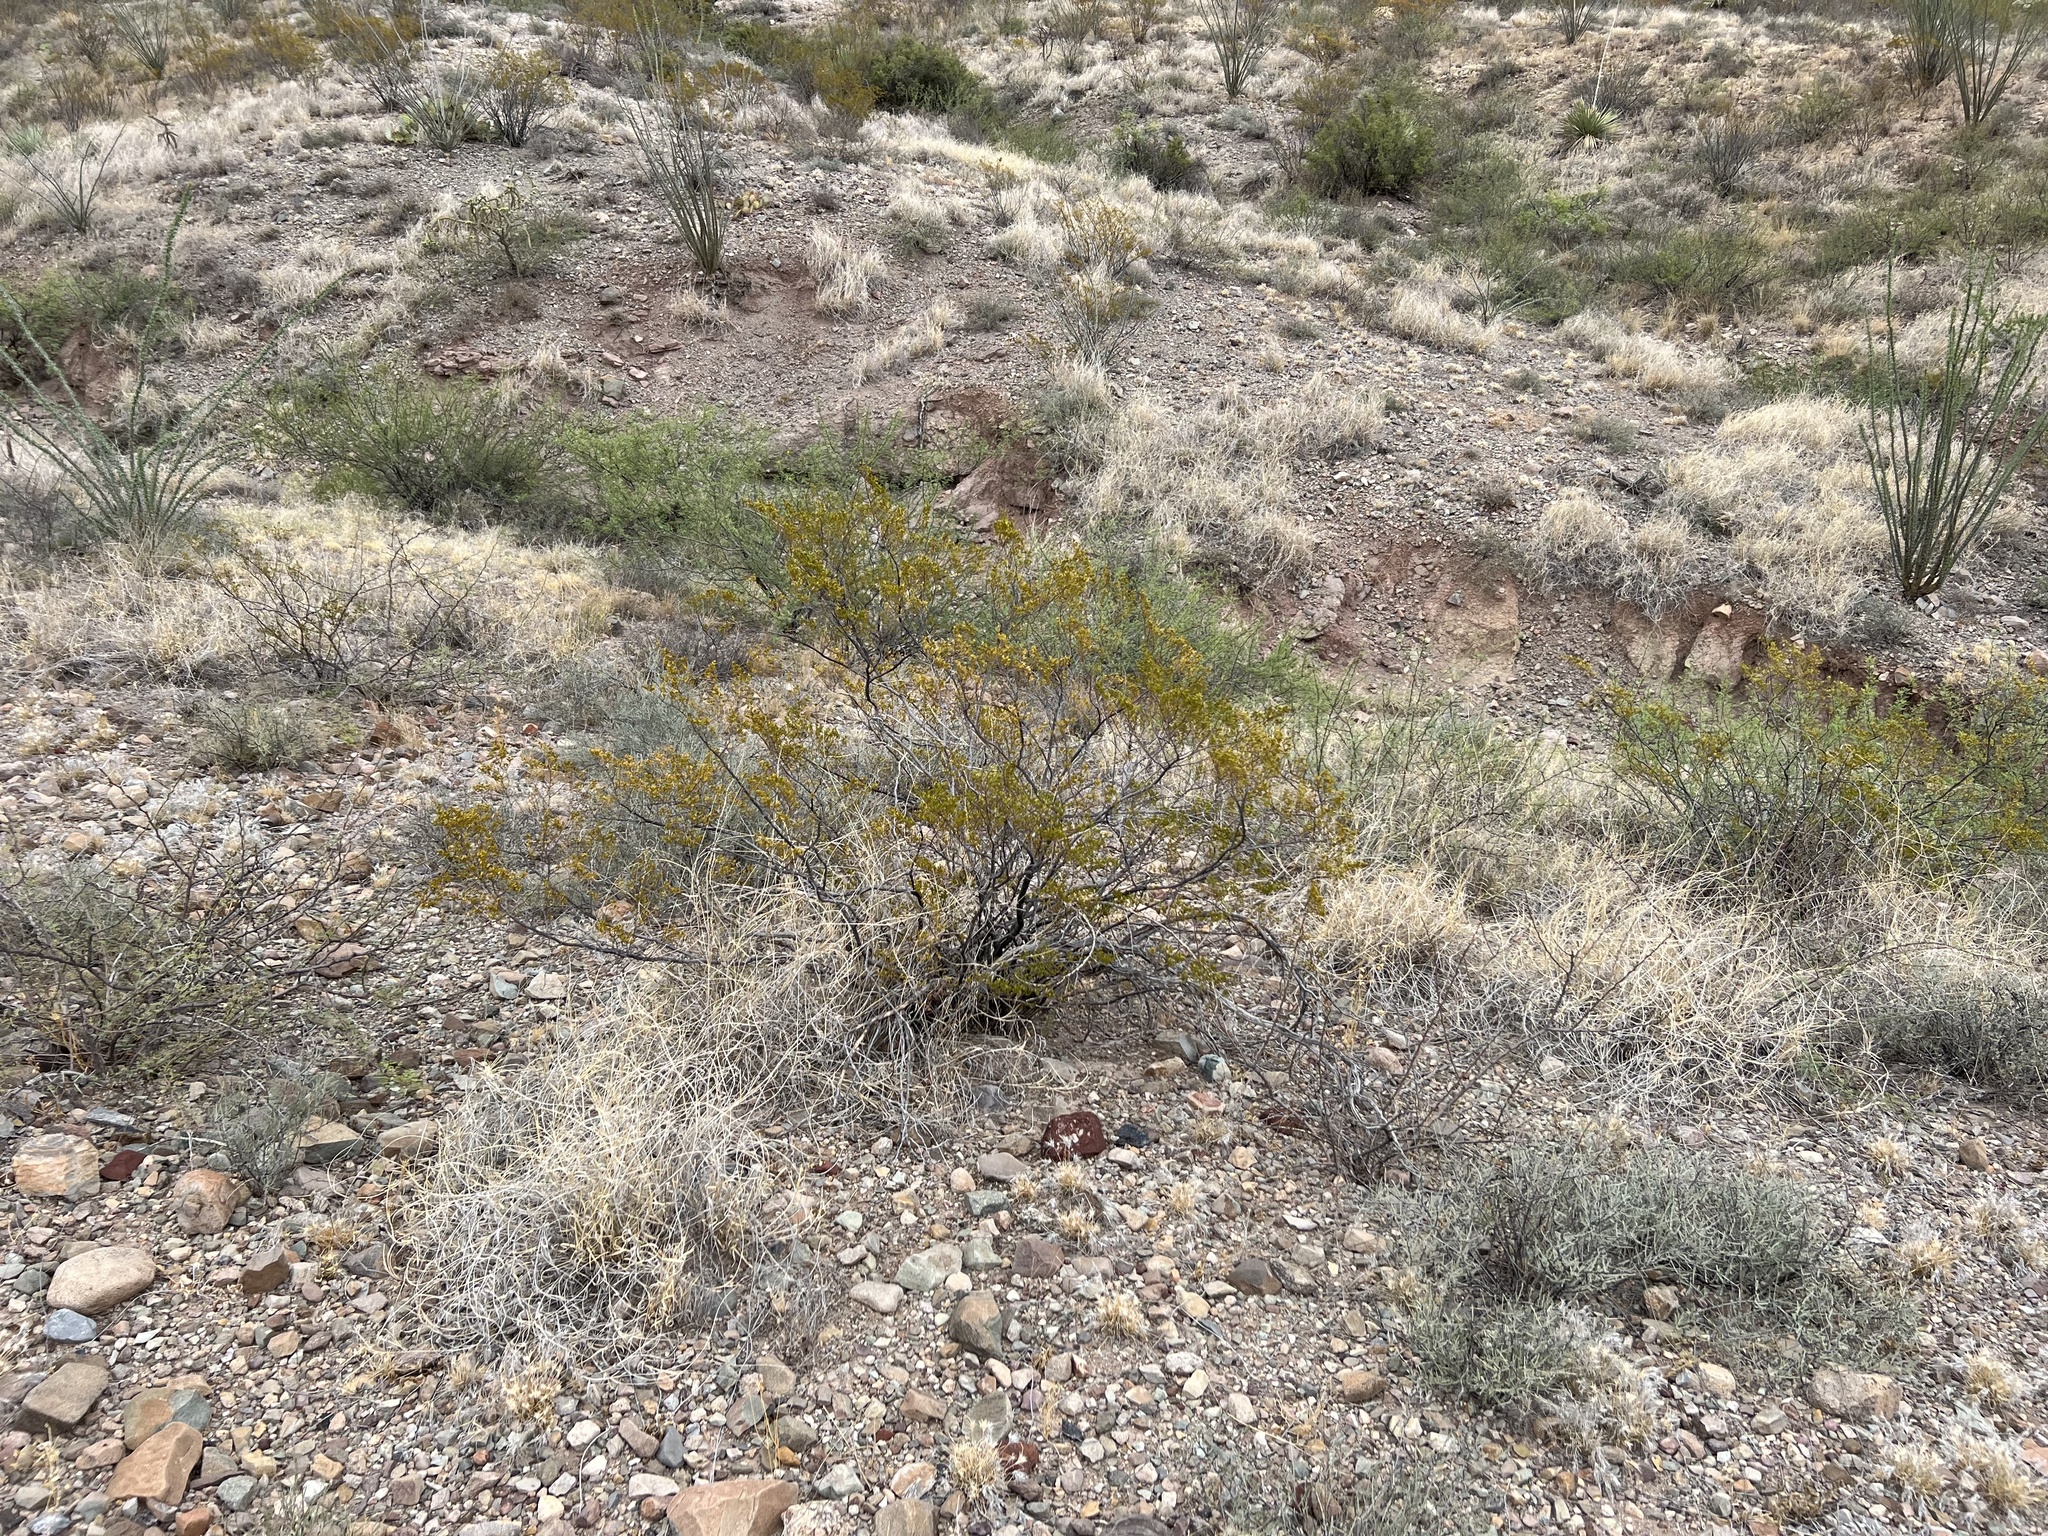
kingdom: Plantae
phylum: Tracheophyta
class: Magnoliopsida
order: Zygophyllales
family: Zygophyllaceae
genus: Larrea
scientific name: Larrea tridentata
